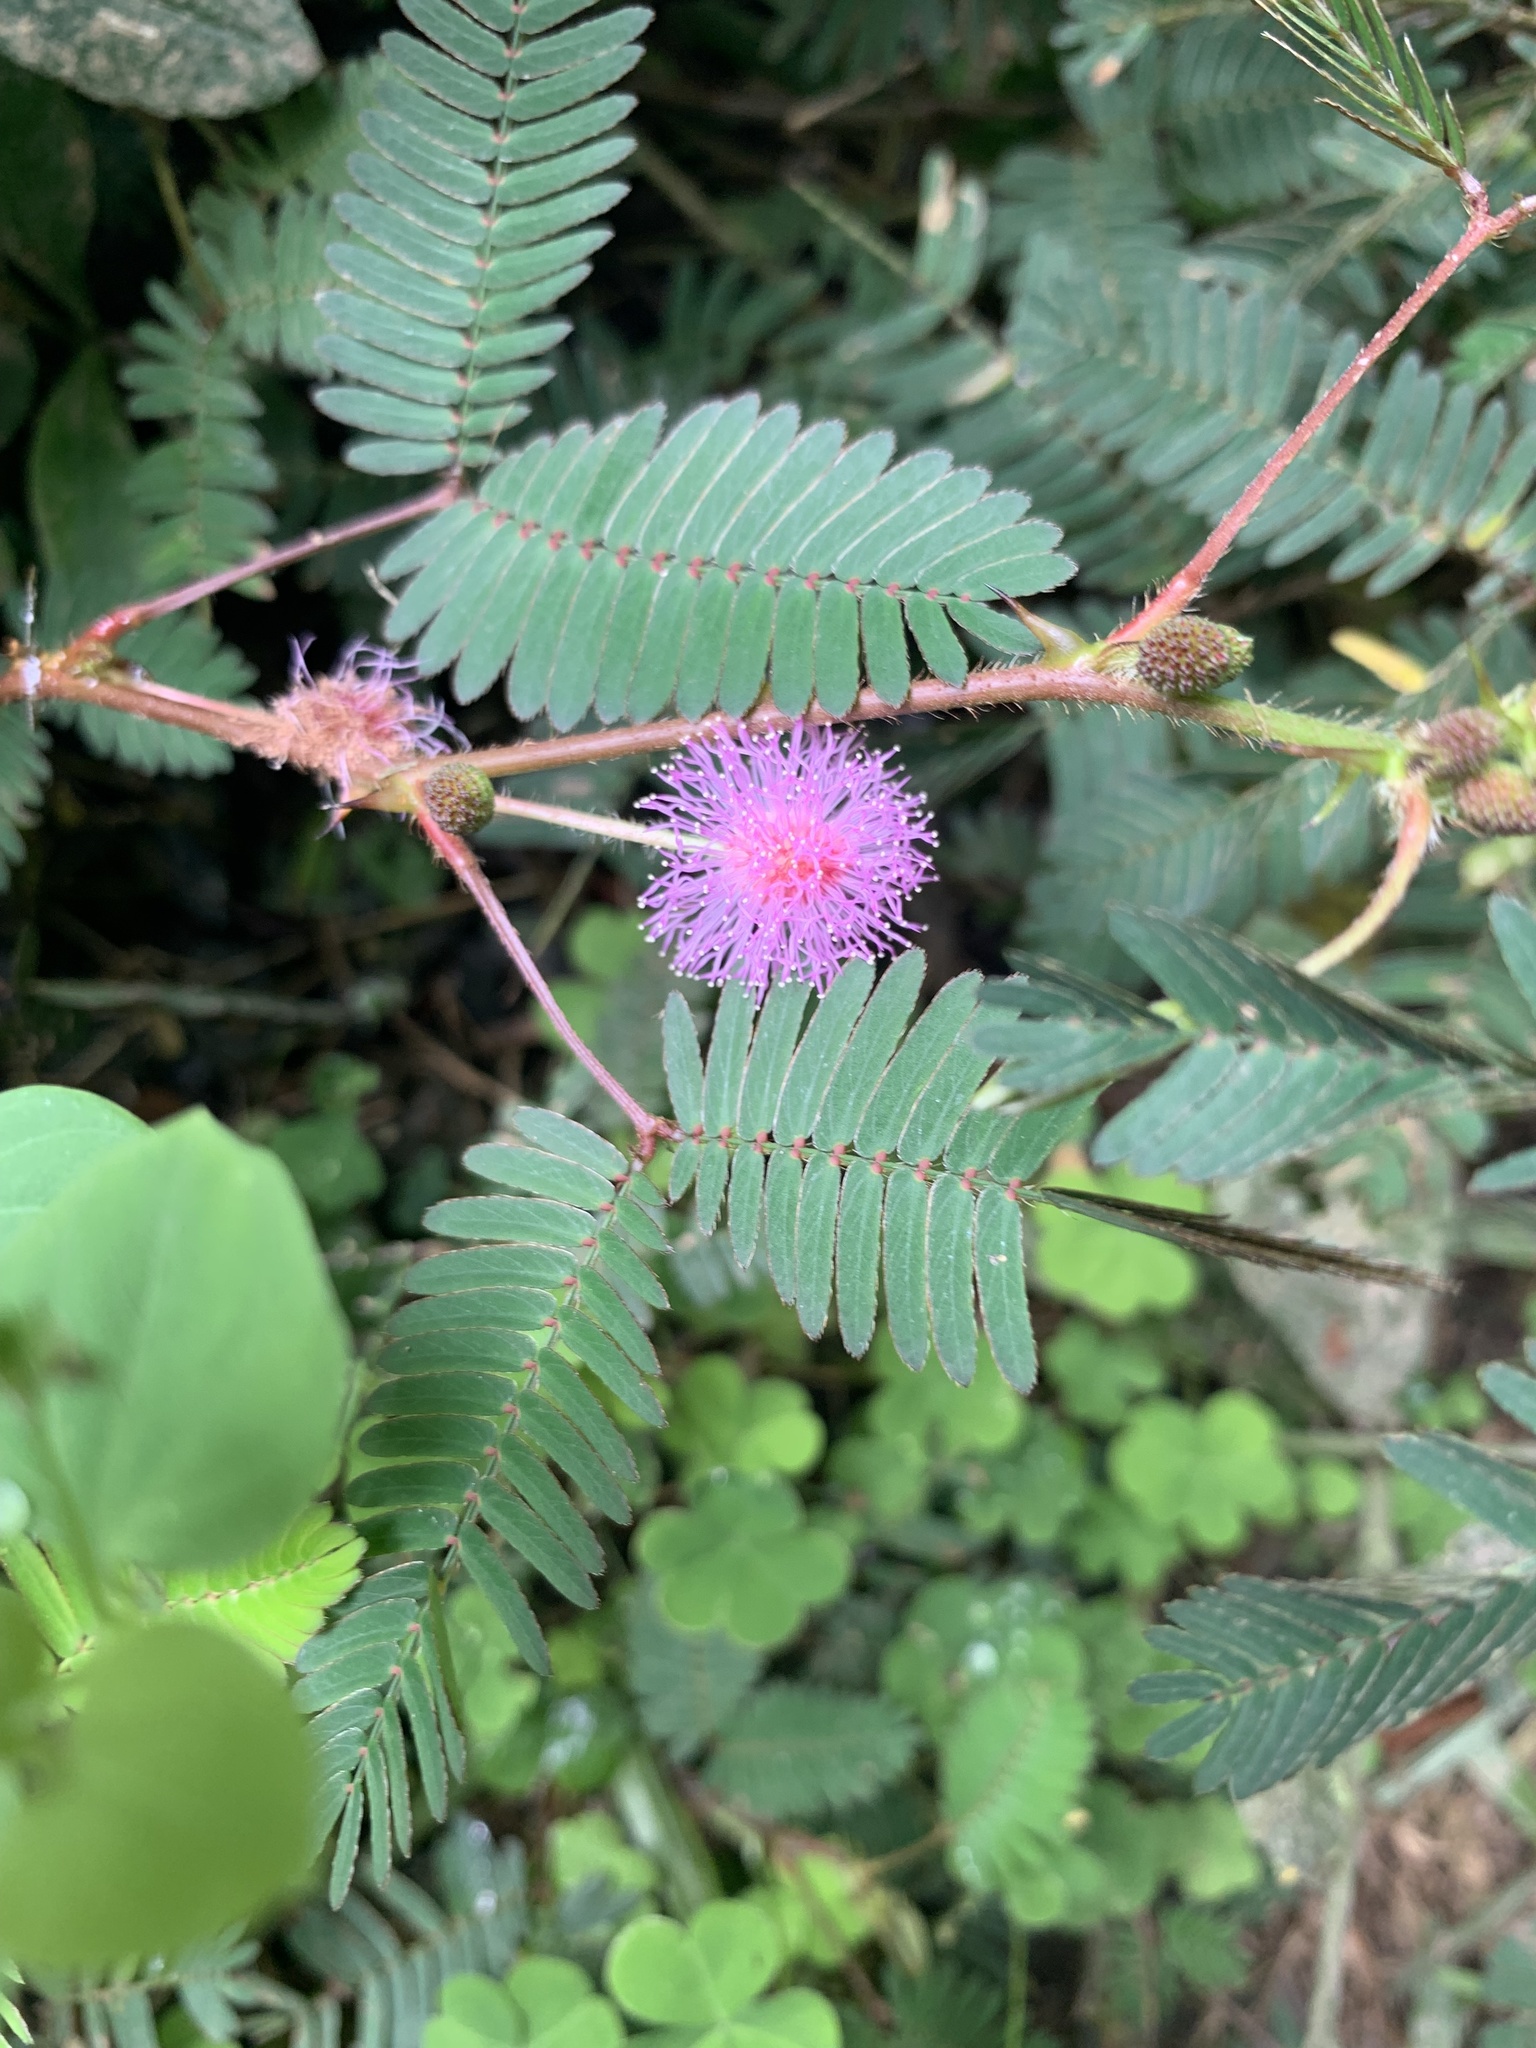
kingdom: Plantae
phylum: Tracheophyta
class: Magnoliopsida
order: Fabales
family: Fabaceae
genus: Mimosa
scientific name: Mimosa pudica
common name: Sensitive plant
